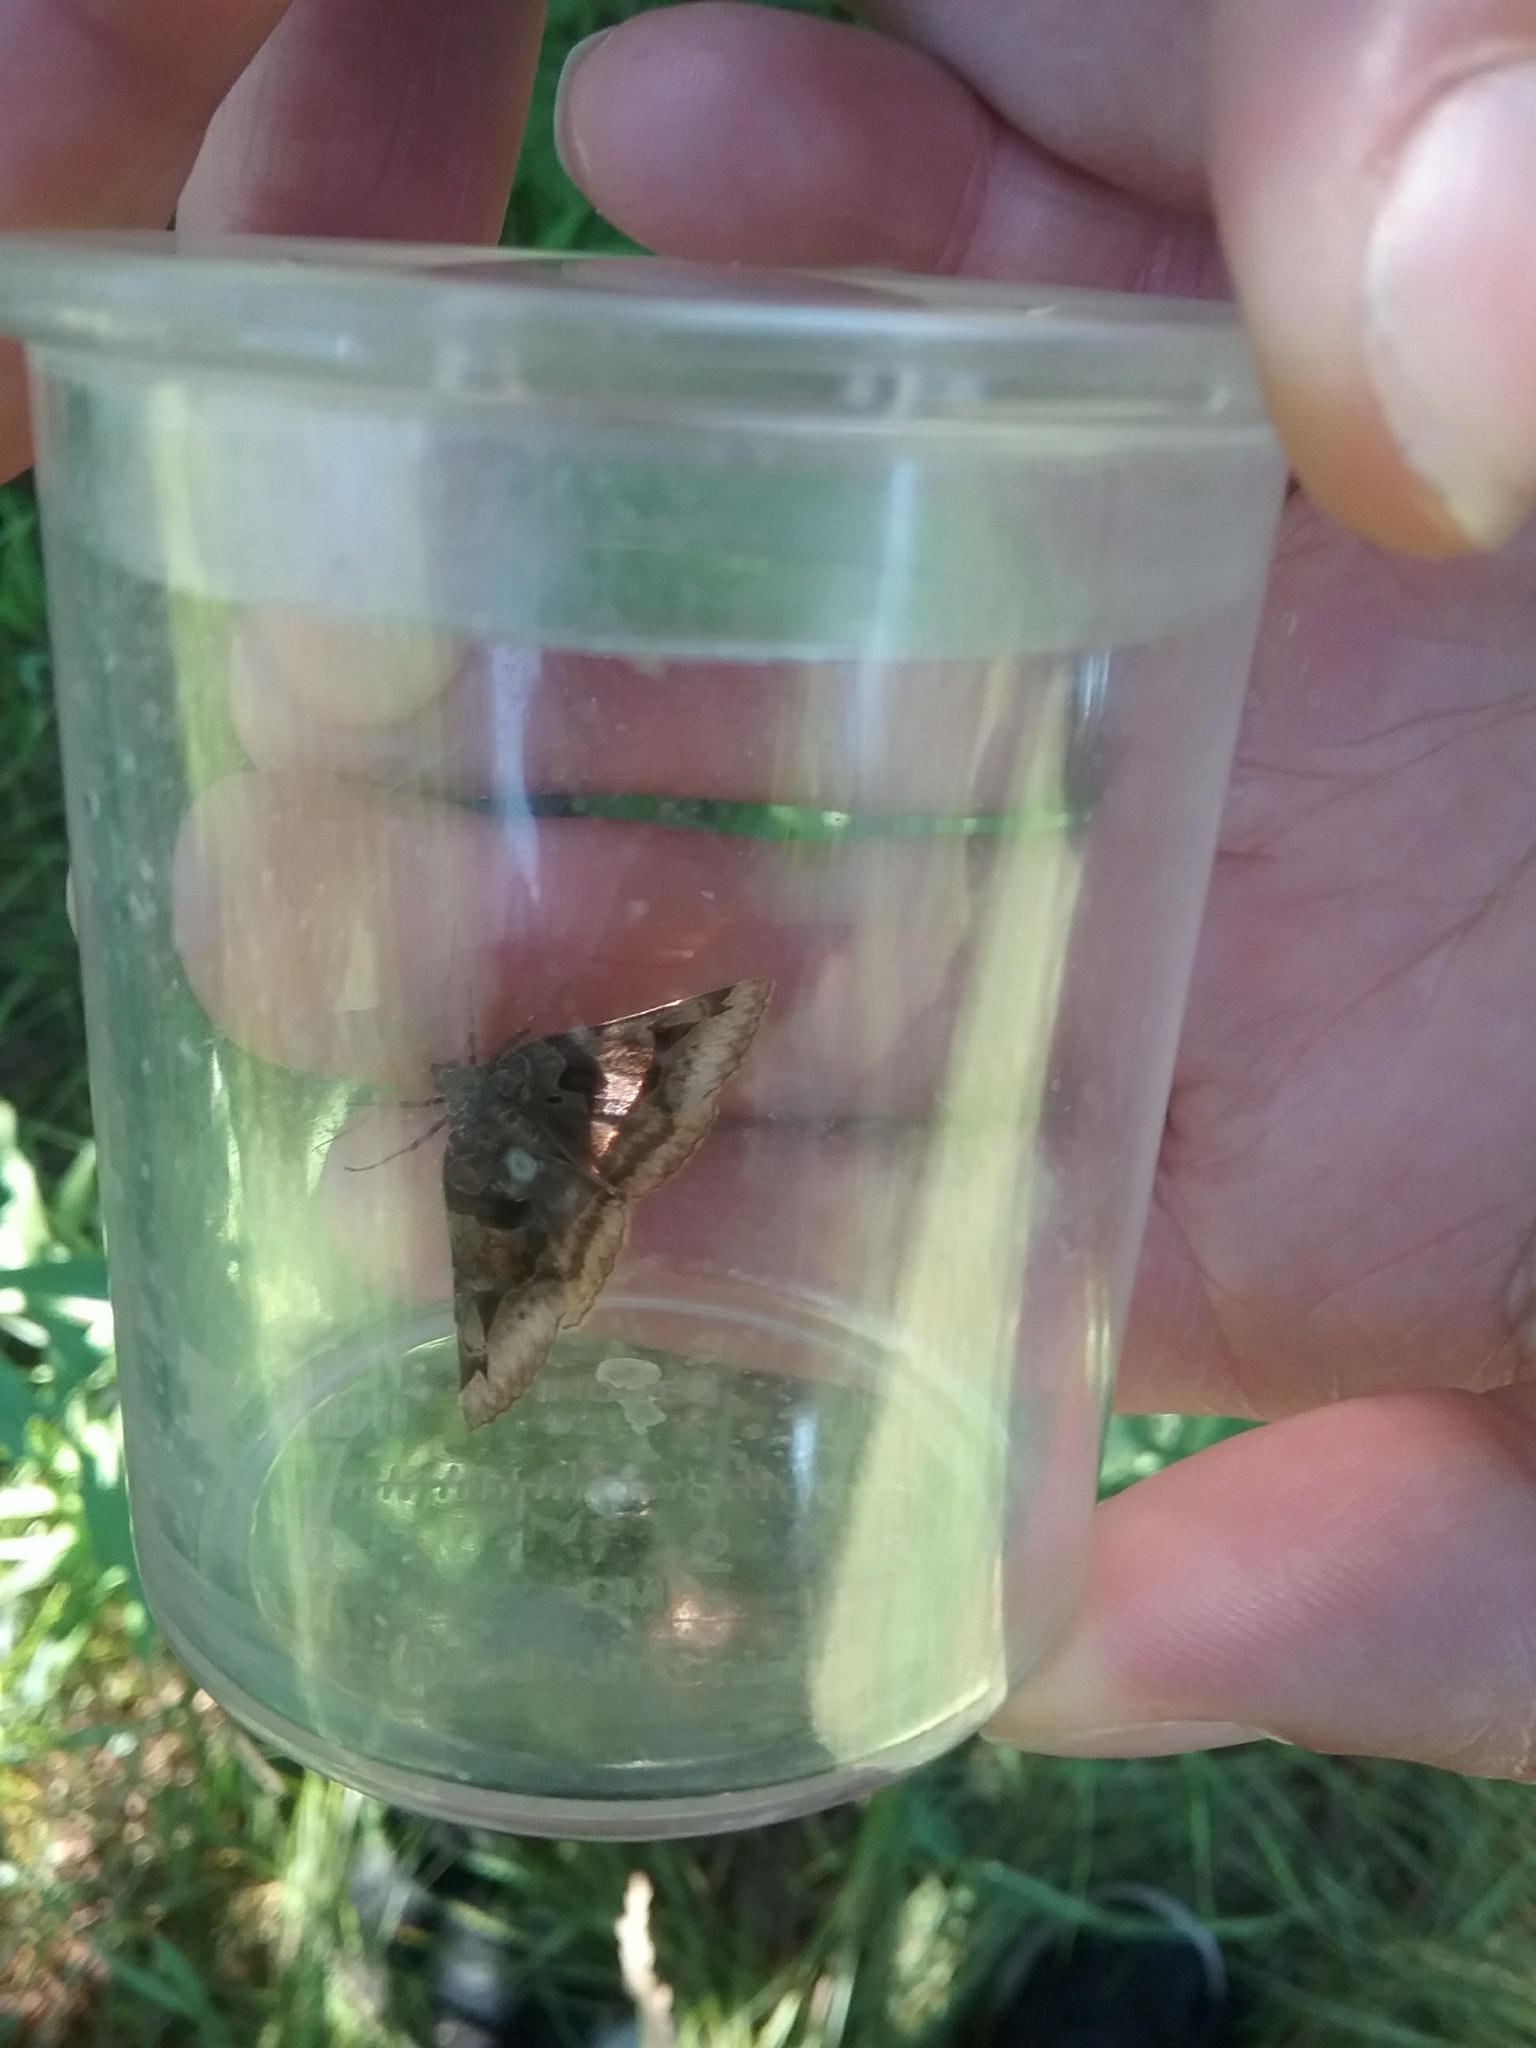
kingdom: Animalia
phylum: Arthropoda
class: Insecta
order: Lepidoptera
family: Erebidae
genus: Euclidia
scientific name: Euclidia cuspidea
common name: Toothed somberwing
